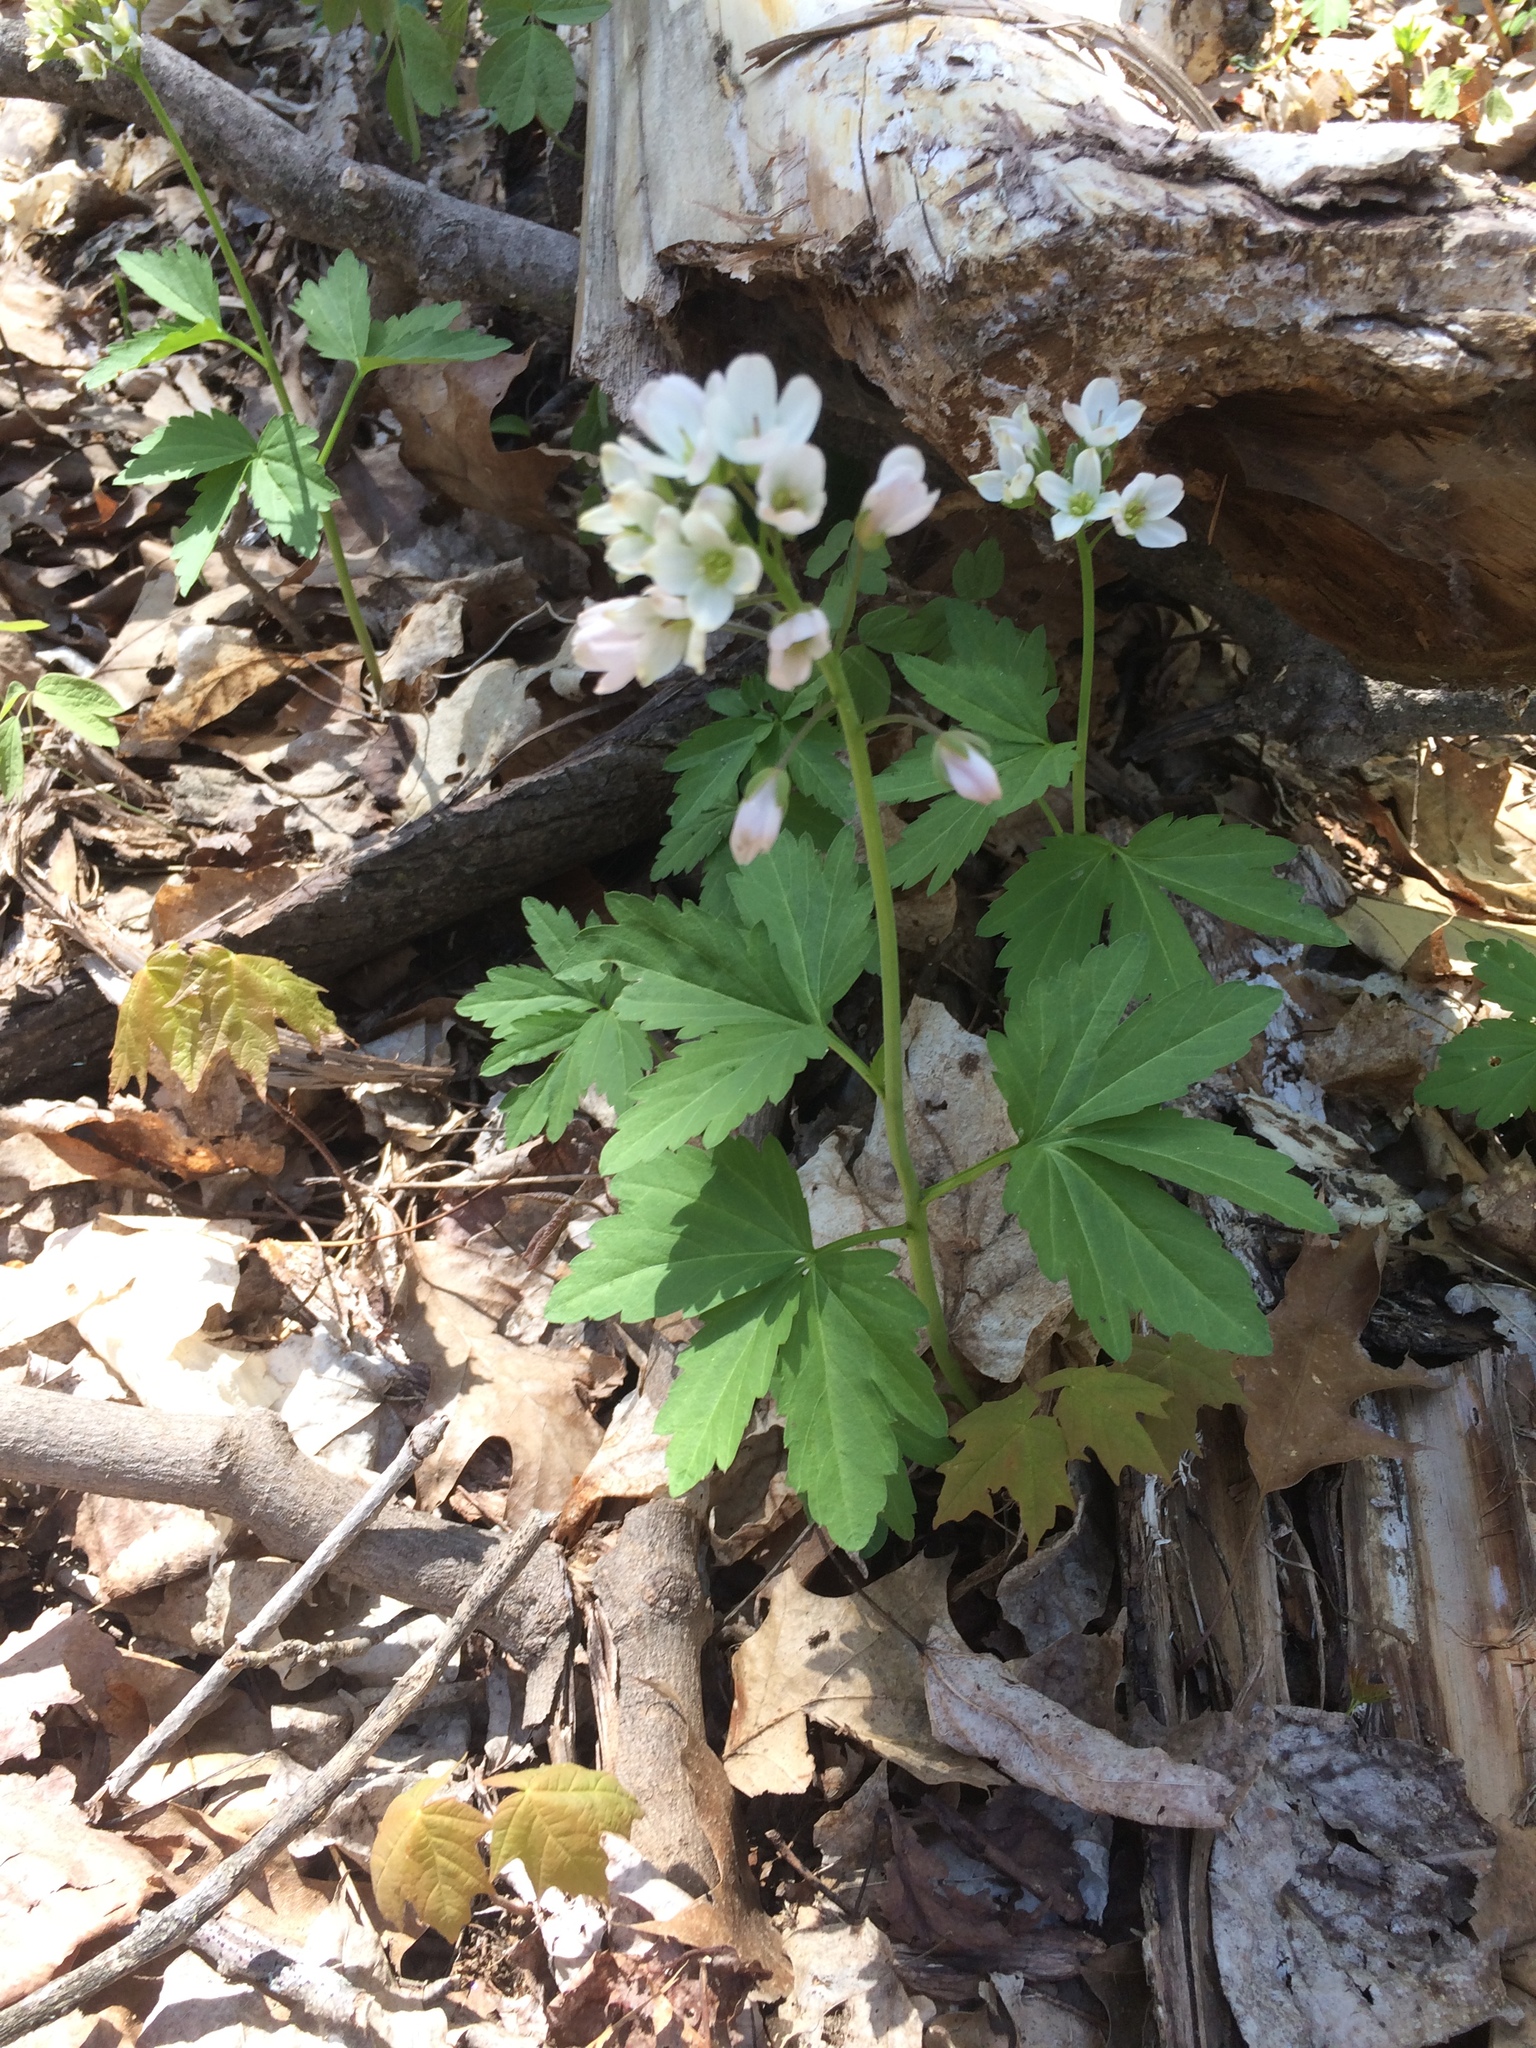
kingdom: Plantae
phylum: Tracheophyta
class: Magnoliopsida
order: Brassicales
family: Brassicaceae
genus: Cardamine
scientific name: Cardamine maxima
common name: Great bittercress
